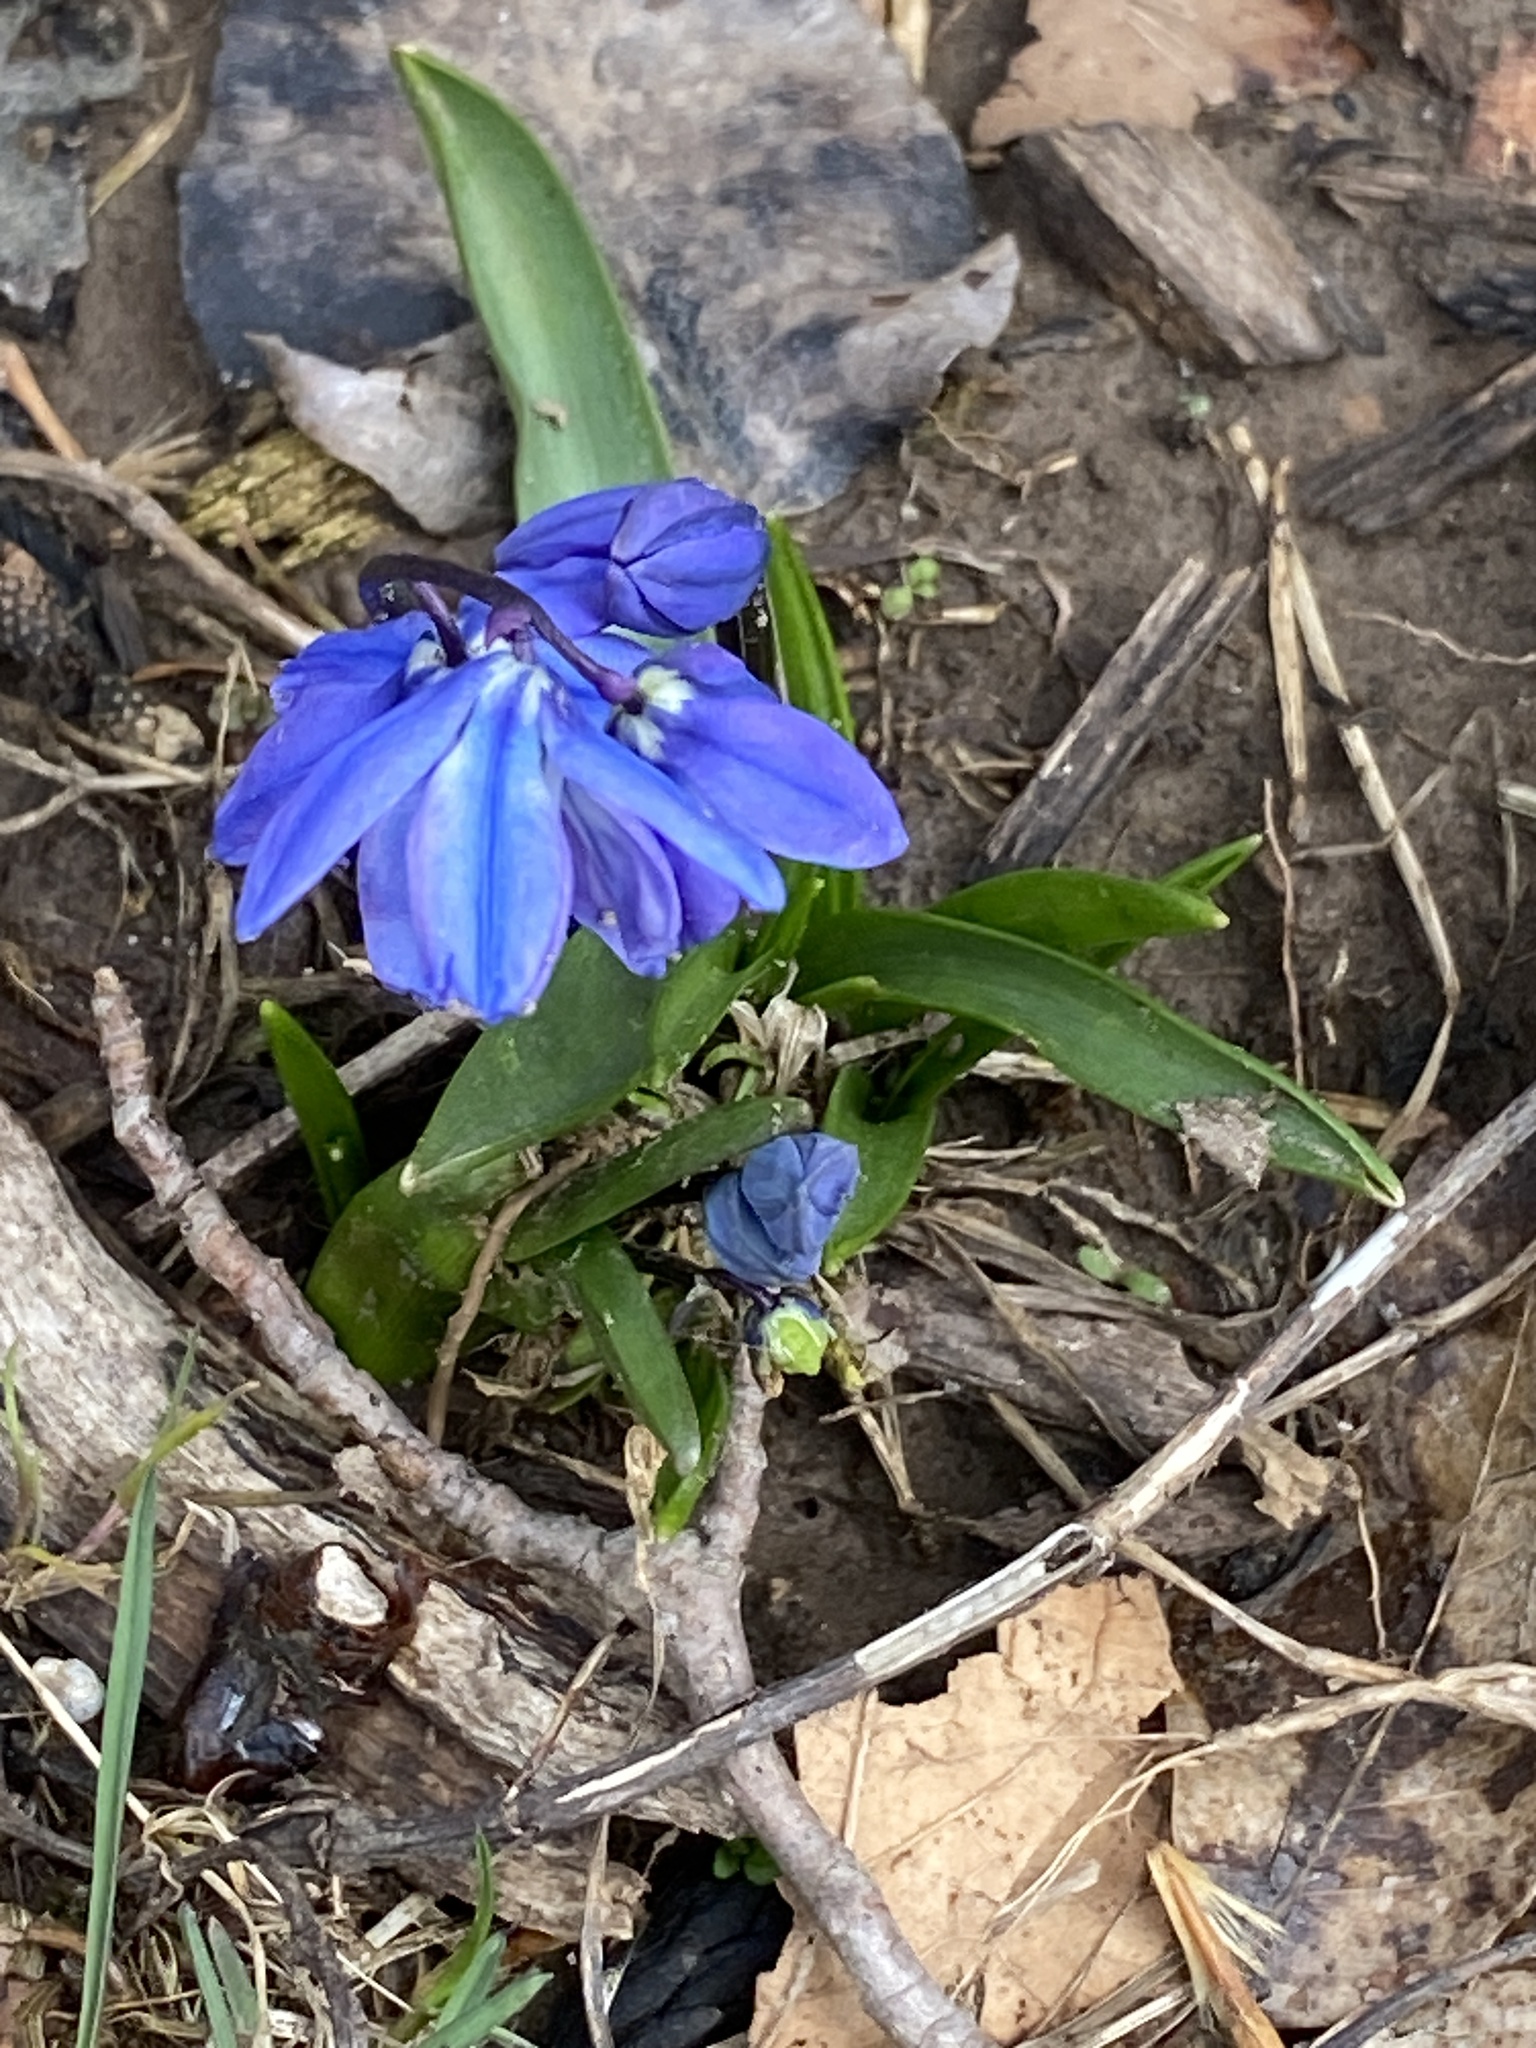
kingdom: Plantae
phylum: Tracheophyta
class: Liliopsida
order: Asparagales
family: Asparagaceae
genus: Scilla
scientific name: Scilla siberica
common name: Siberian squill
